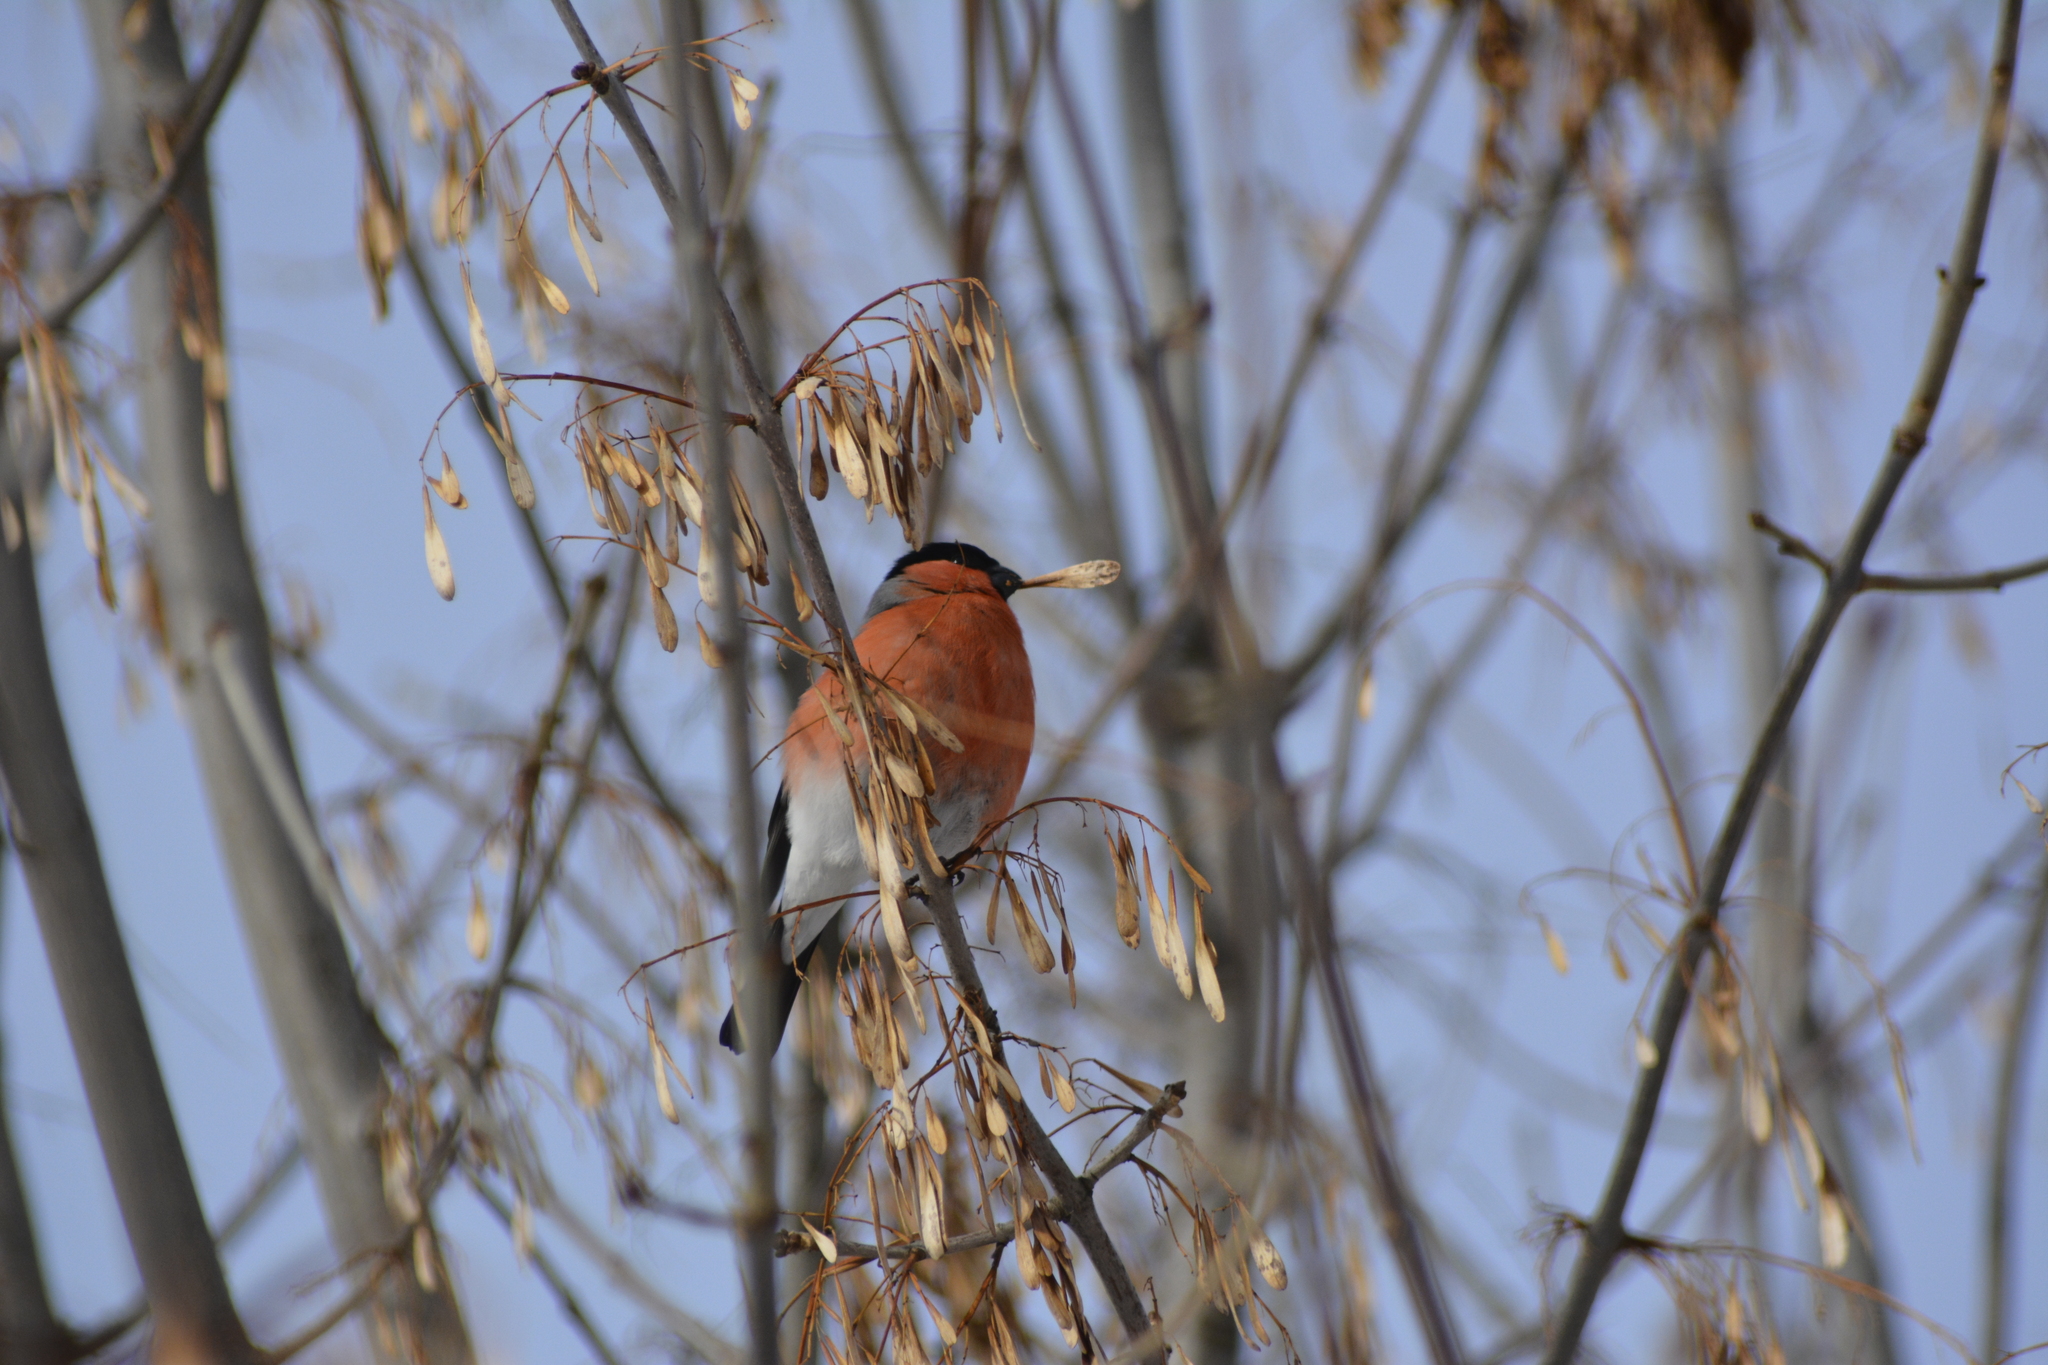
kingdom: Animalia
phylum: Chordata
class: Aves
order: Passeriformes
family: Fringillidae
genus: Pyrrhula
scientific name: Pyrrhula pyrrhula
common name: Eurasian bullfinch
